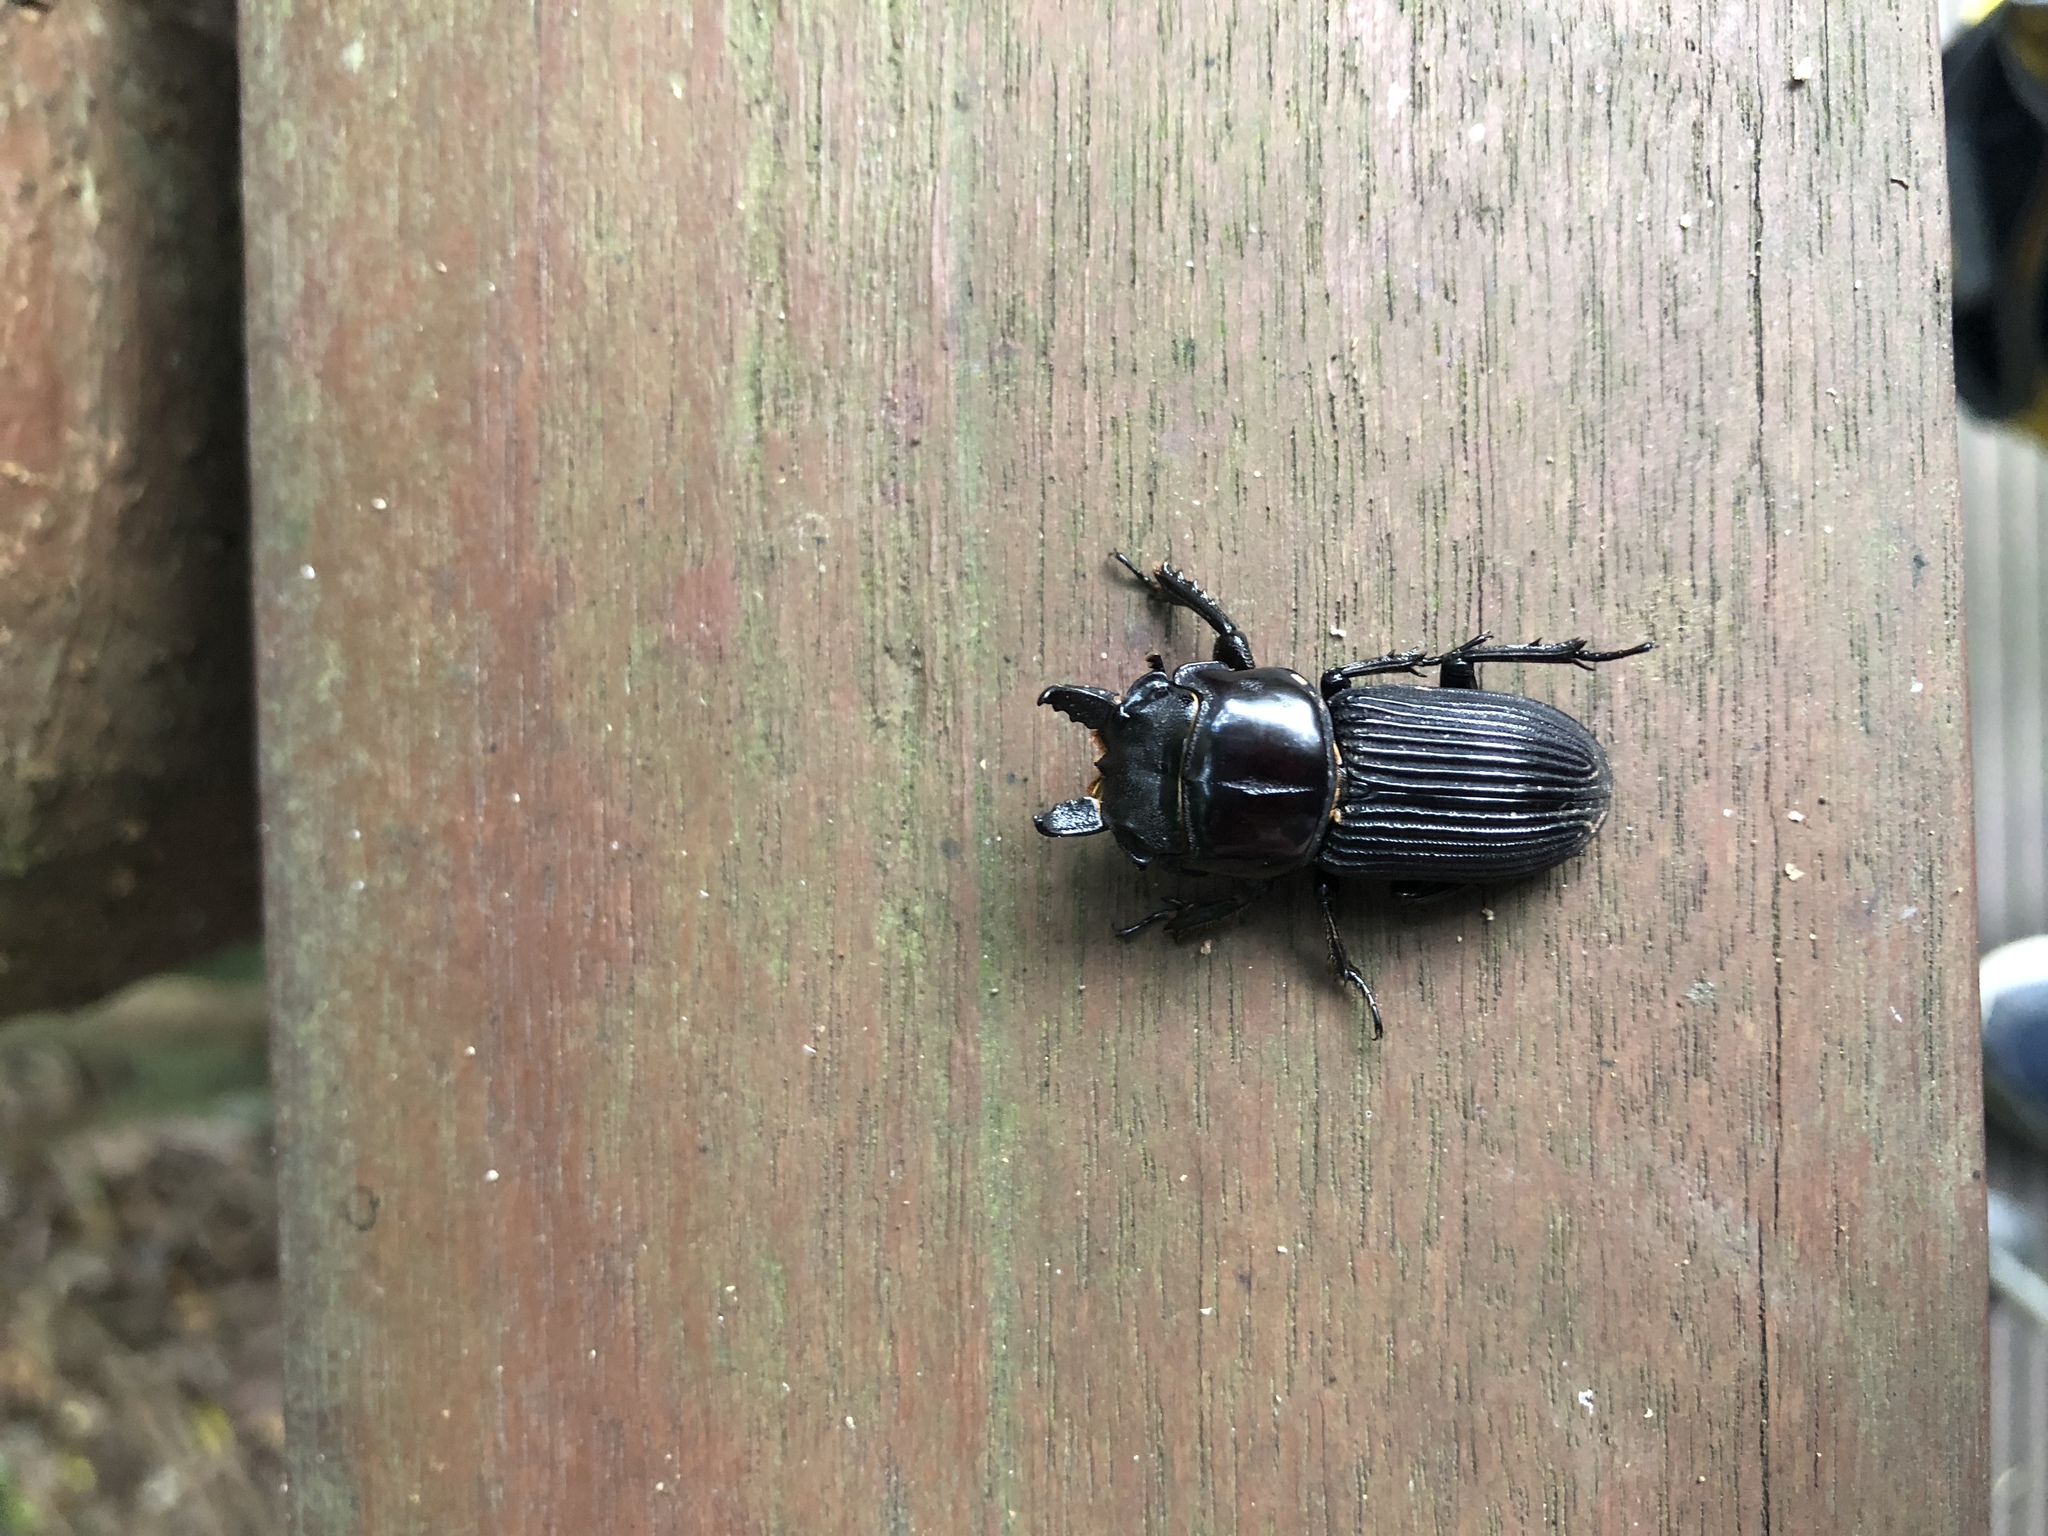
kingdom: Animalia
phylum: Arthropoda
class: Insecta
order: Coleoptera
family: Lucanidae
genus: Nigidionus
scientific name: Nigidionus parryi
